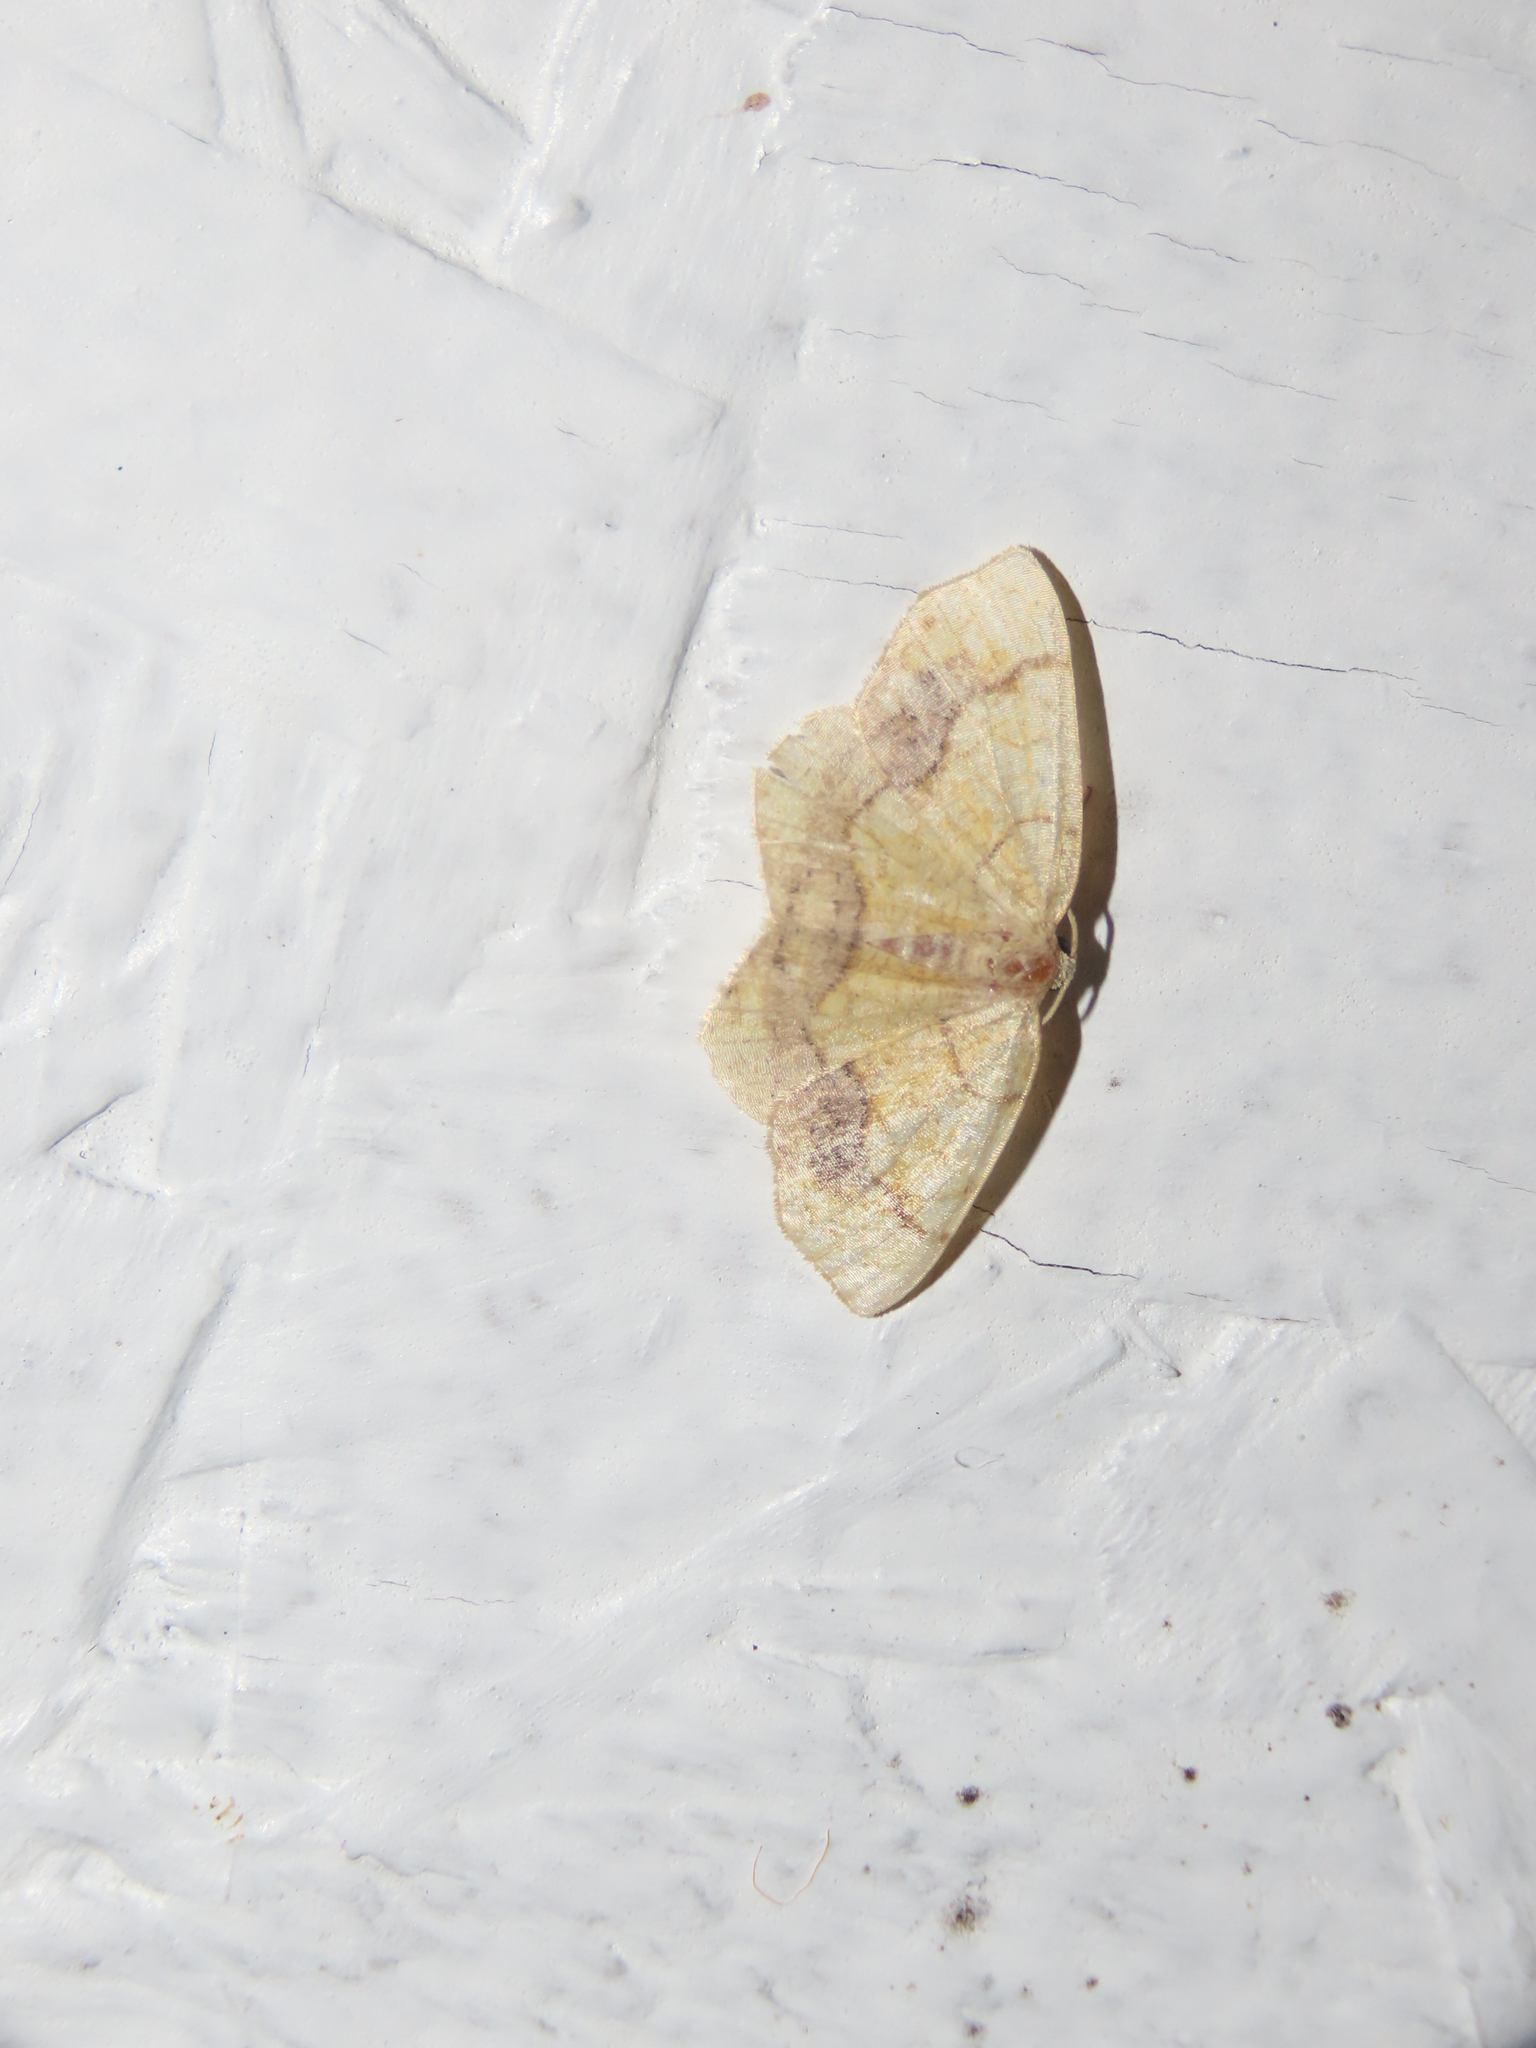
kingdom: Animalia
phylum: Arthropoda
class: Insecta
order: Lepidoptera
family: Geometridae
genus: Nematocampa
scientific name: Nematocampa resistaria
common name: Horned spanworm moth
